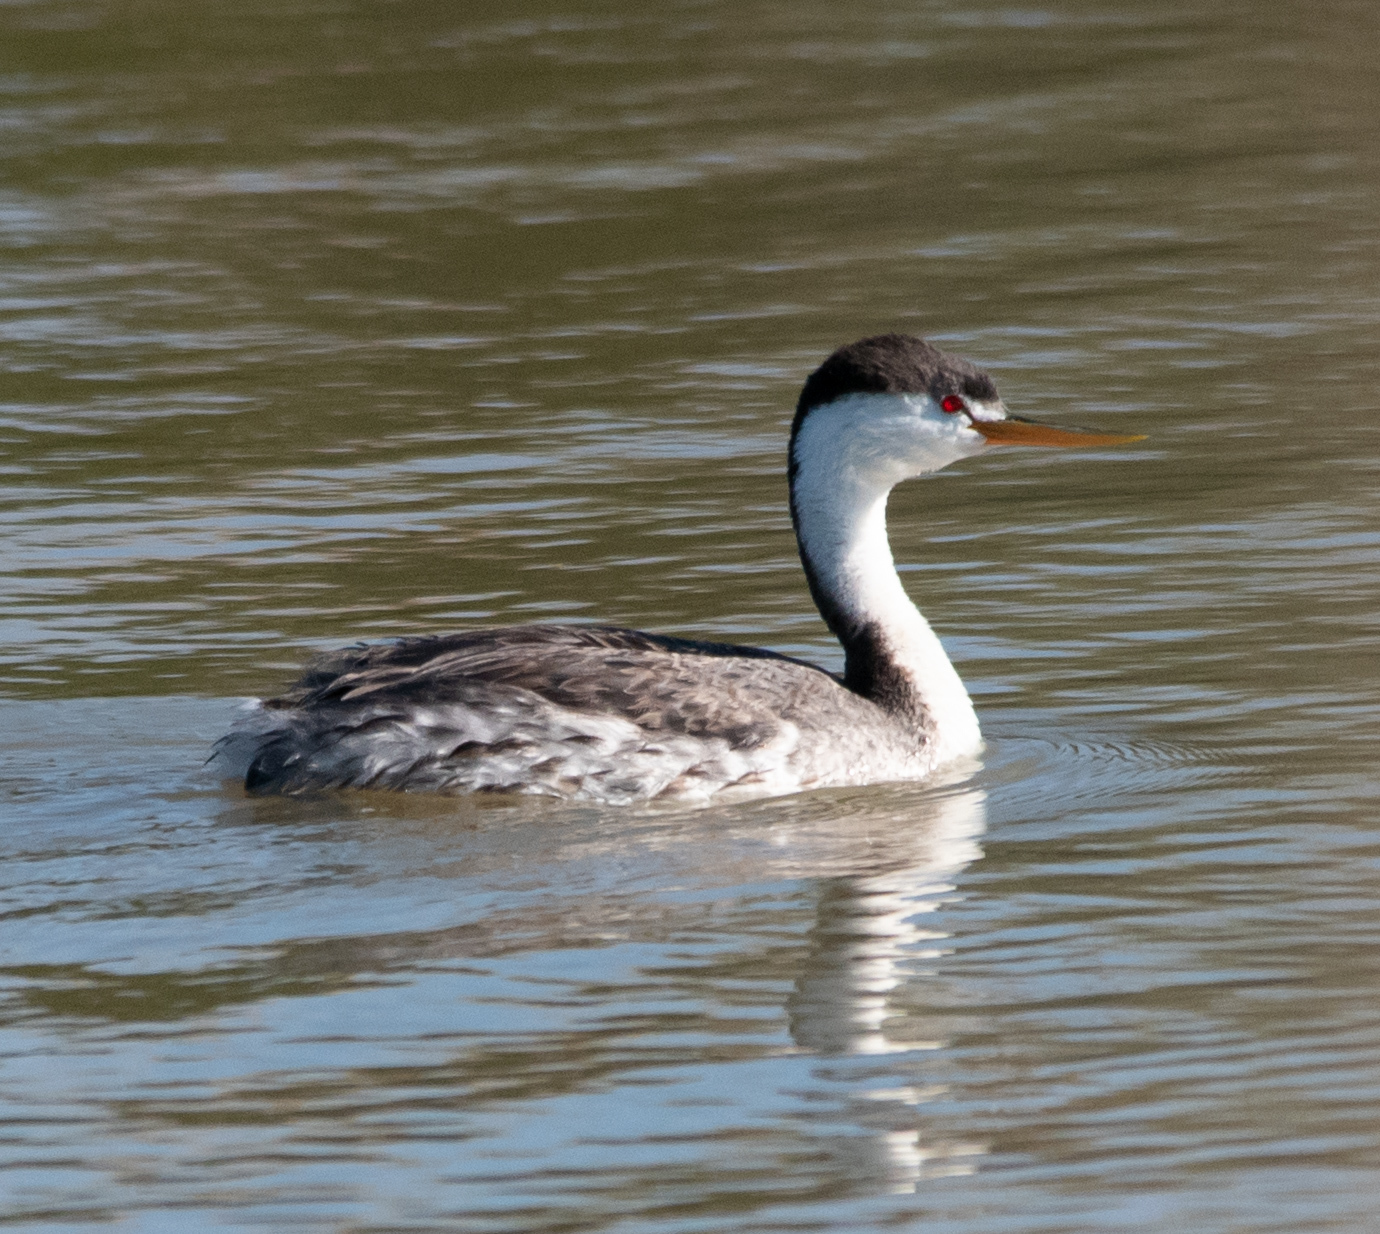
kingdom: Animalia
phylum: Chordata
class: Aves
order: Podicipediformes
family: Podicipedidae
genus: Aechmophorus
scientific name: Aechmophorus clarkii
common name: Clark's grebe
